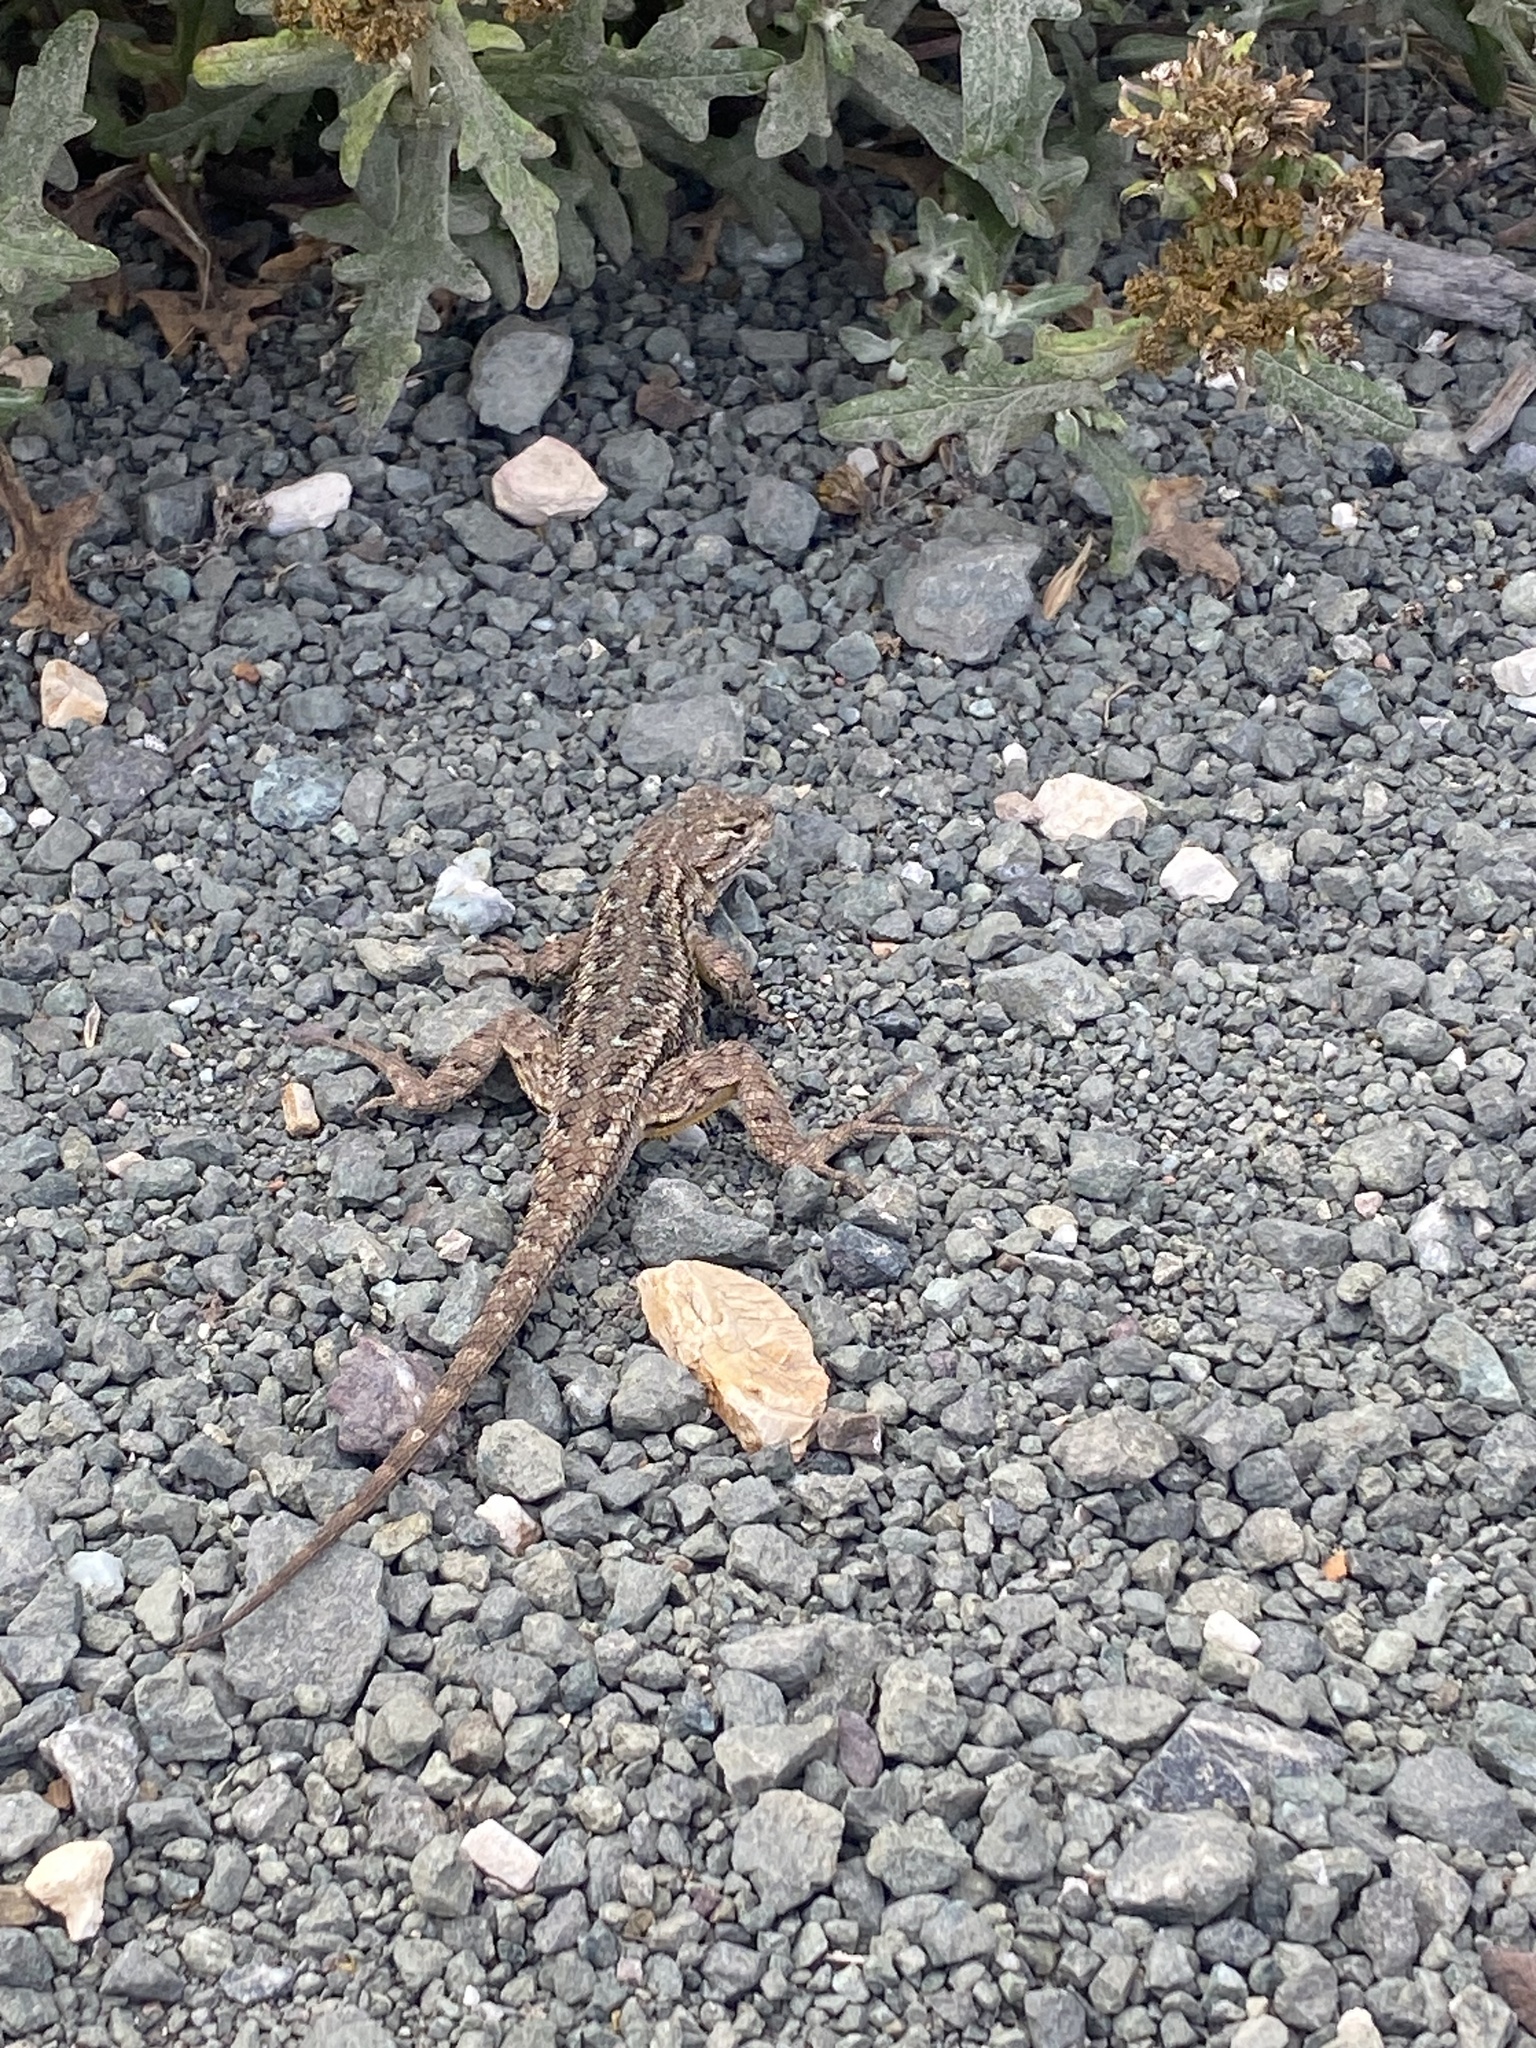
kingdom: Animalia
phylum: Chordata
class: Squamata
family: Phrynosomatidae
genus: Sceloporus
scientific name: Sceloporus occidentalis
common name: Western fence lizard
